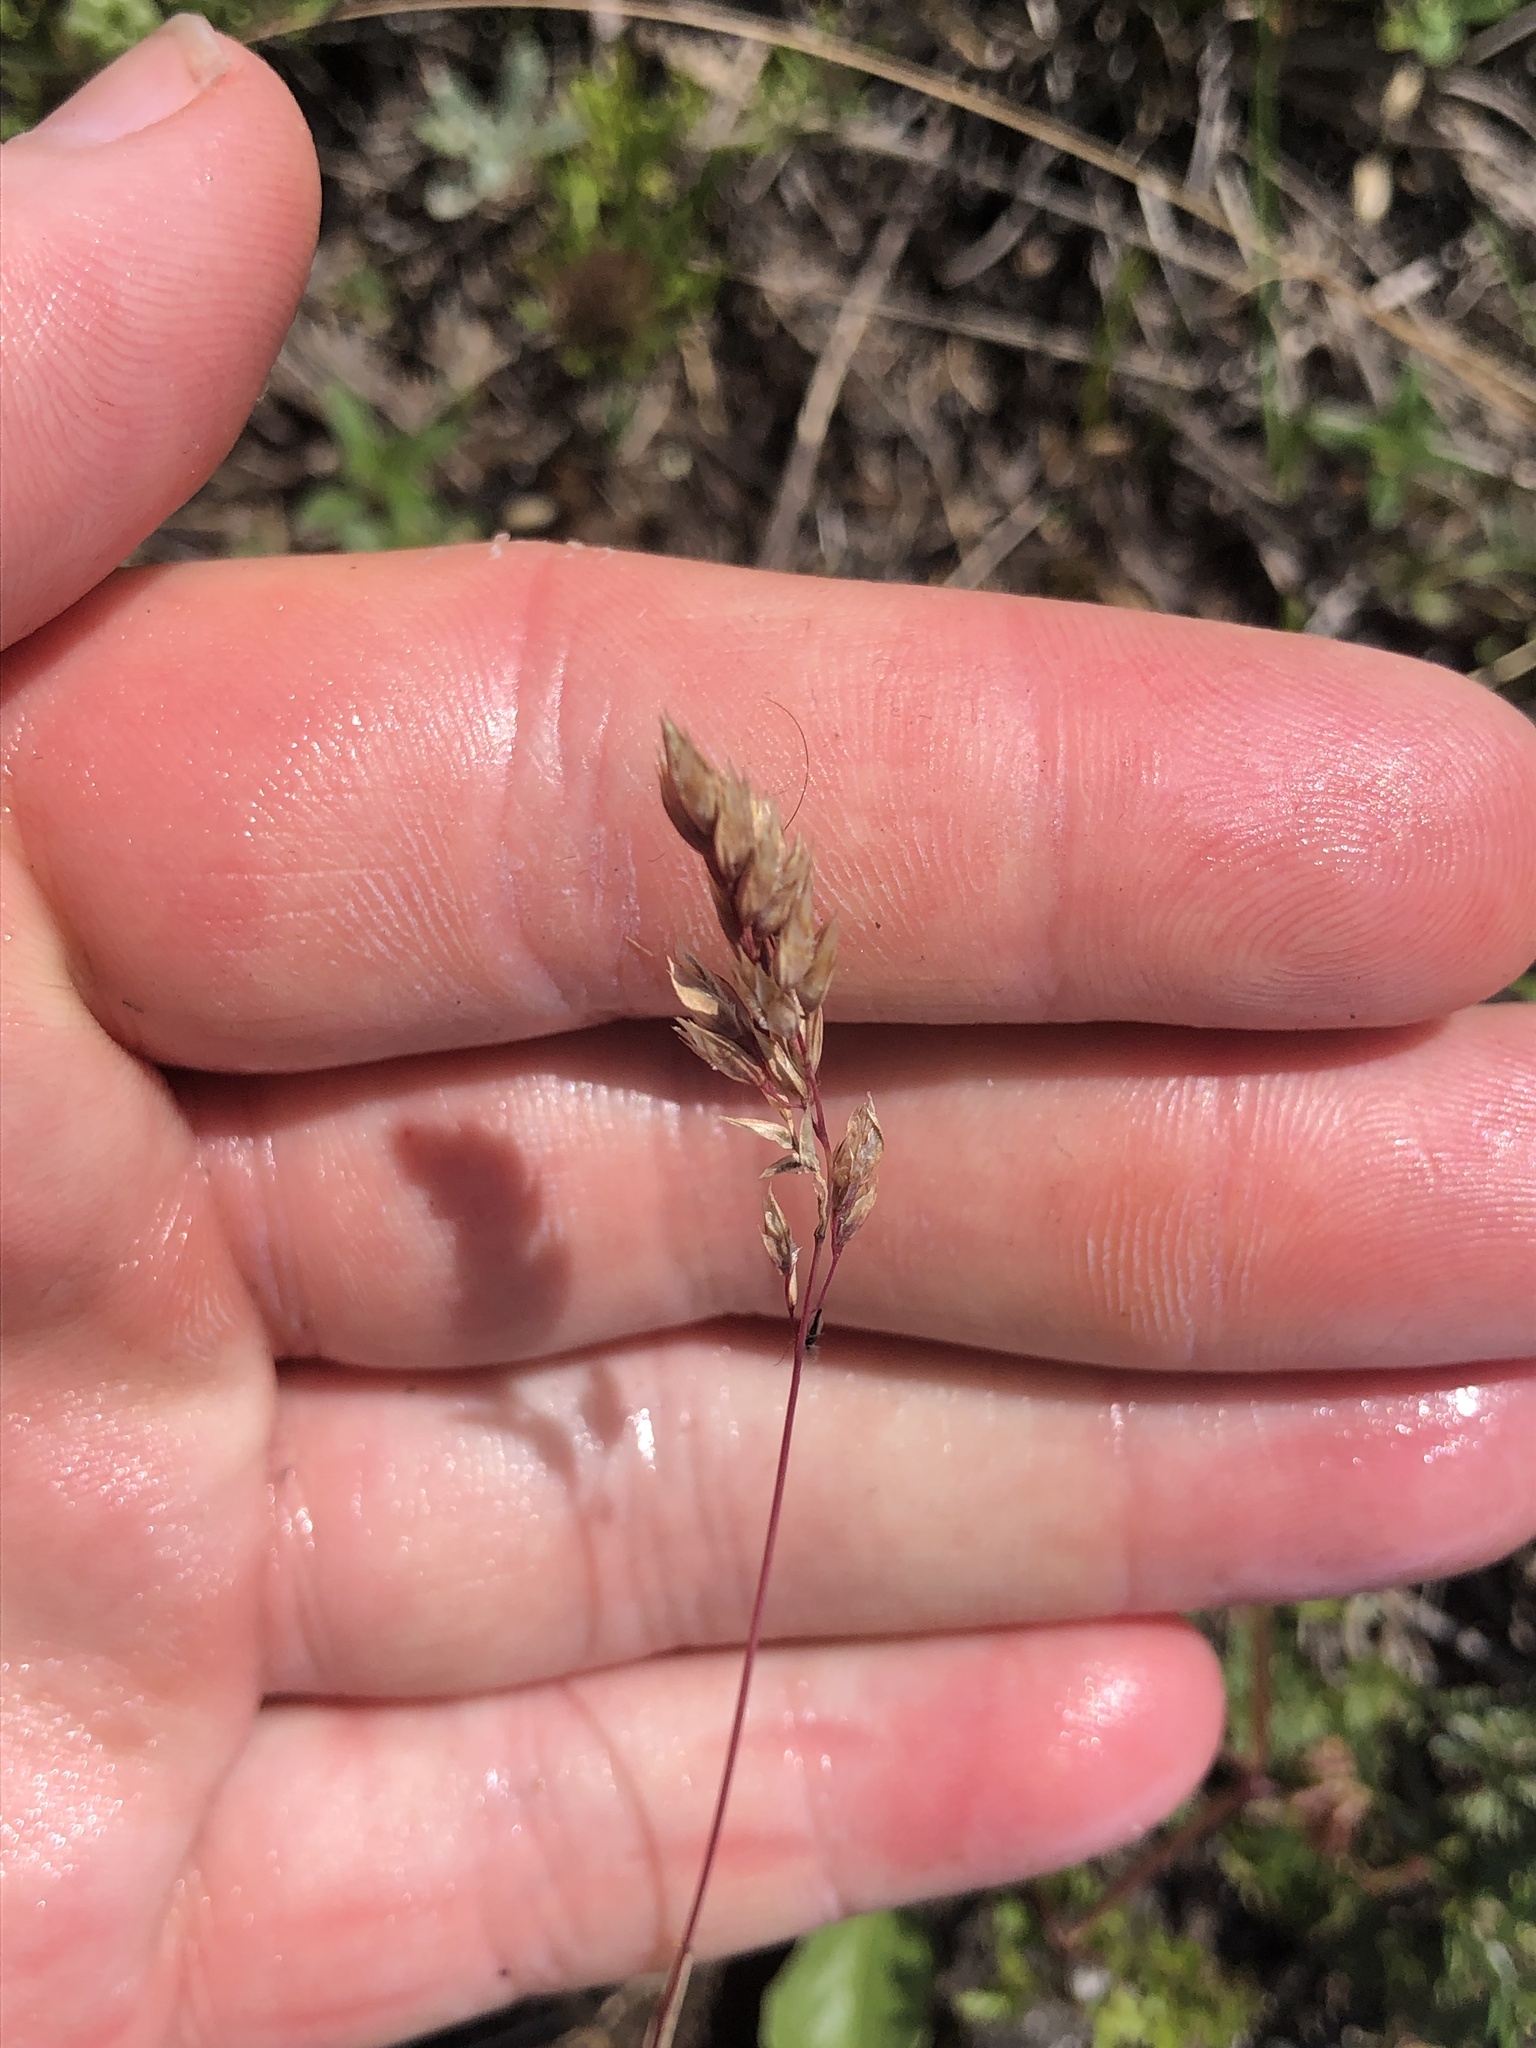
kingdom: Plantae
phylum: Tracheophyta
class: Liliopsida
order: Poales
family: Poaceae
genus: Poa
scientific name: Poa badensis
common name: Baden's bluegrass
